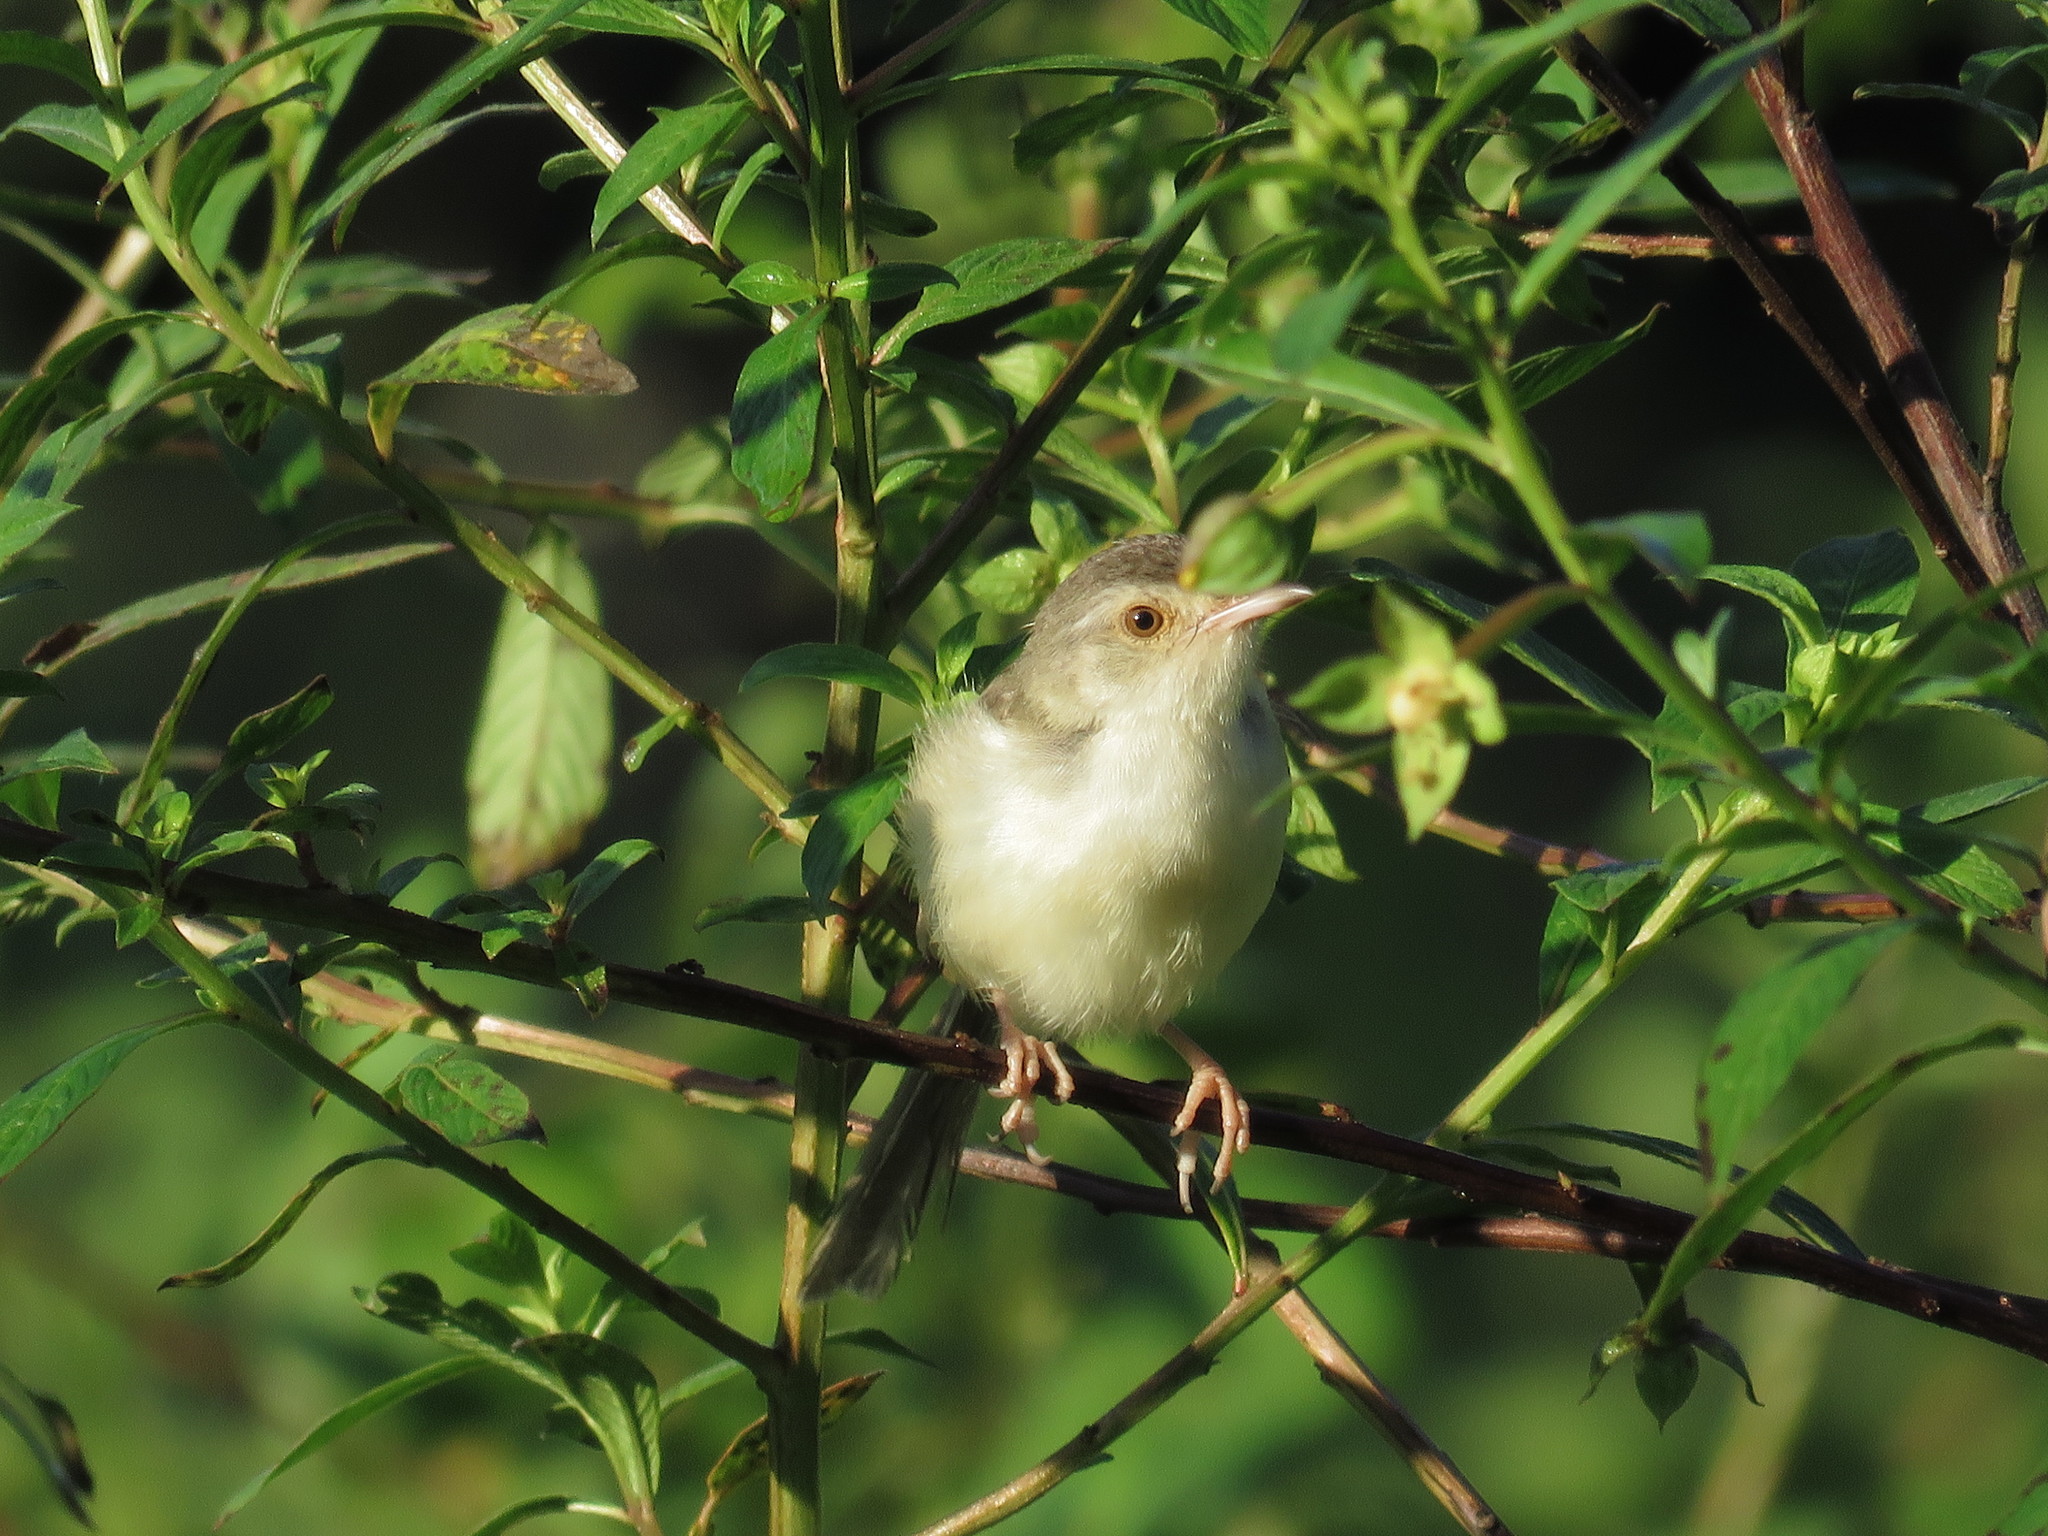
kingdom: Animalia
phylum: Chordata
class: Aves
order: Passeriformes
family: Cisticolidae
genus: Prinia
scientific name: Prinia inornata
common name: Plain prinia
